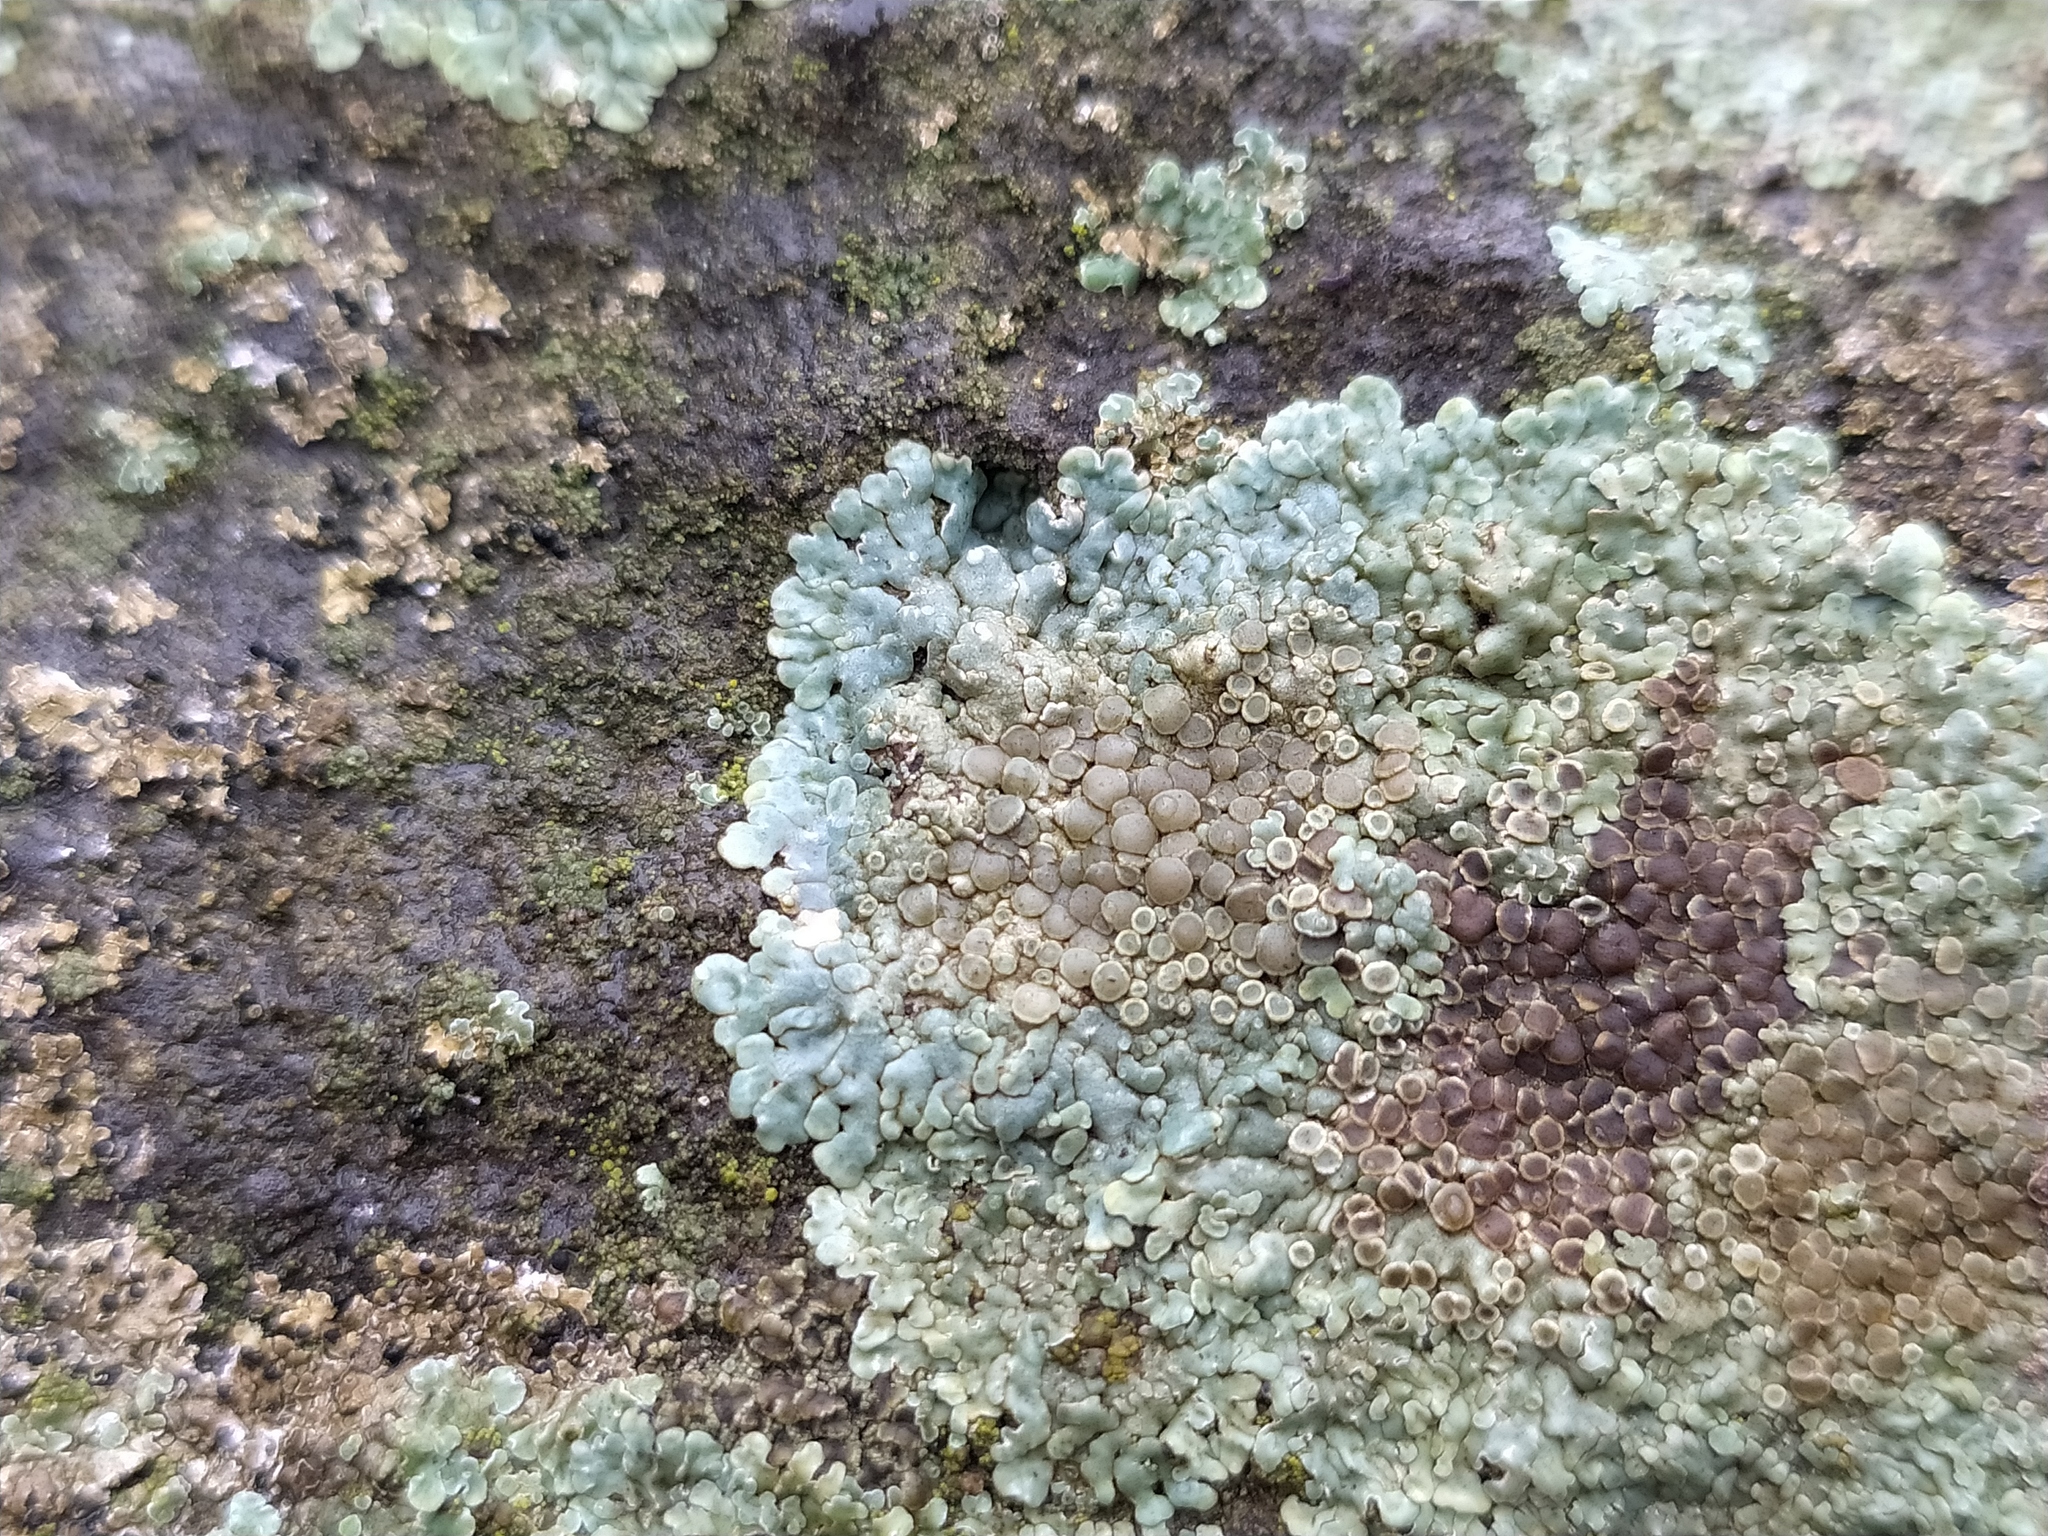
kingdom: Fungi
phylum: Ascomycota
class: Lecanoromycetes
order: Lecanorales
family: Lecanoraceae
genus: Protoparmeliopsis
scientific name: Protoparmeliopsis muralis
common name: Stonewall rim lichen
